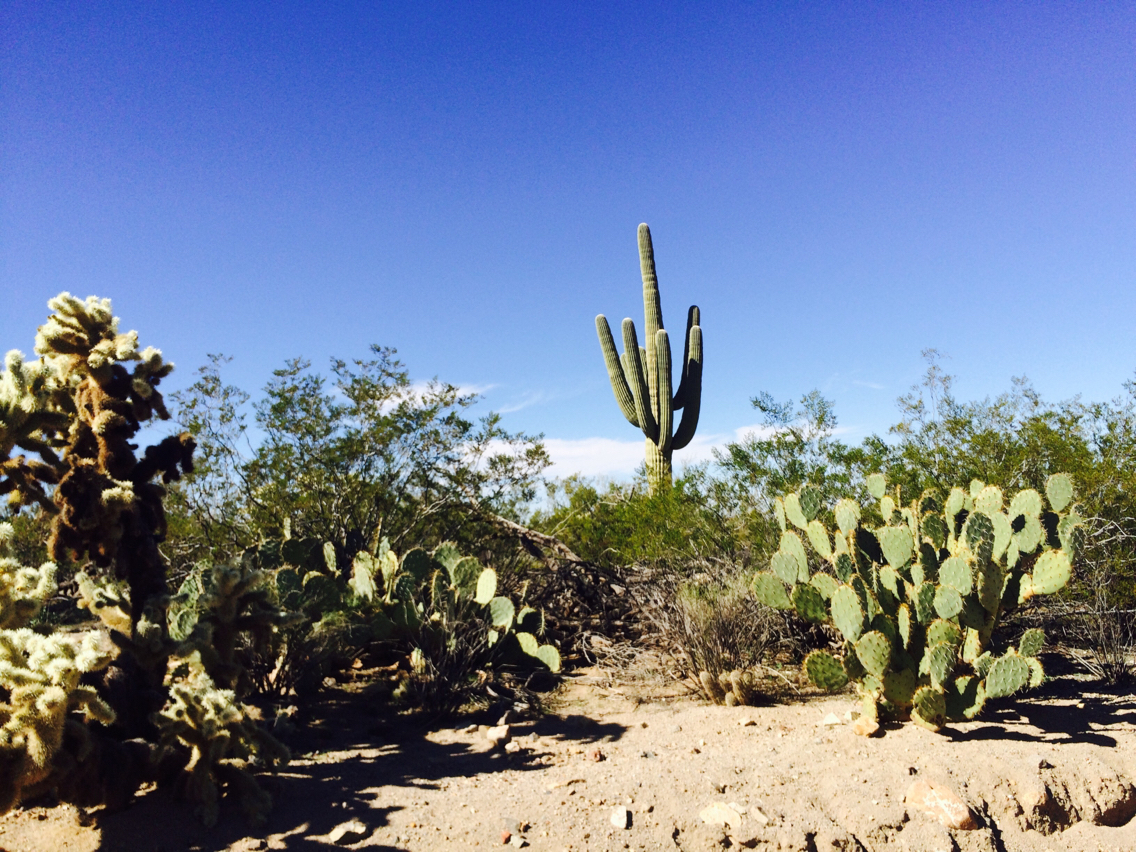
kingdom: Plantae
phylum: Tracheophyta
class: Magnoliopsida
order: Caryophyllales
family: Cactaceae
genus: Carnegiea
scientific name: Carnegiea gigantea
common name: Saguaro
